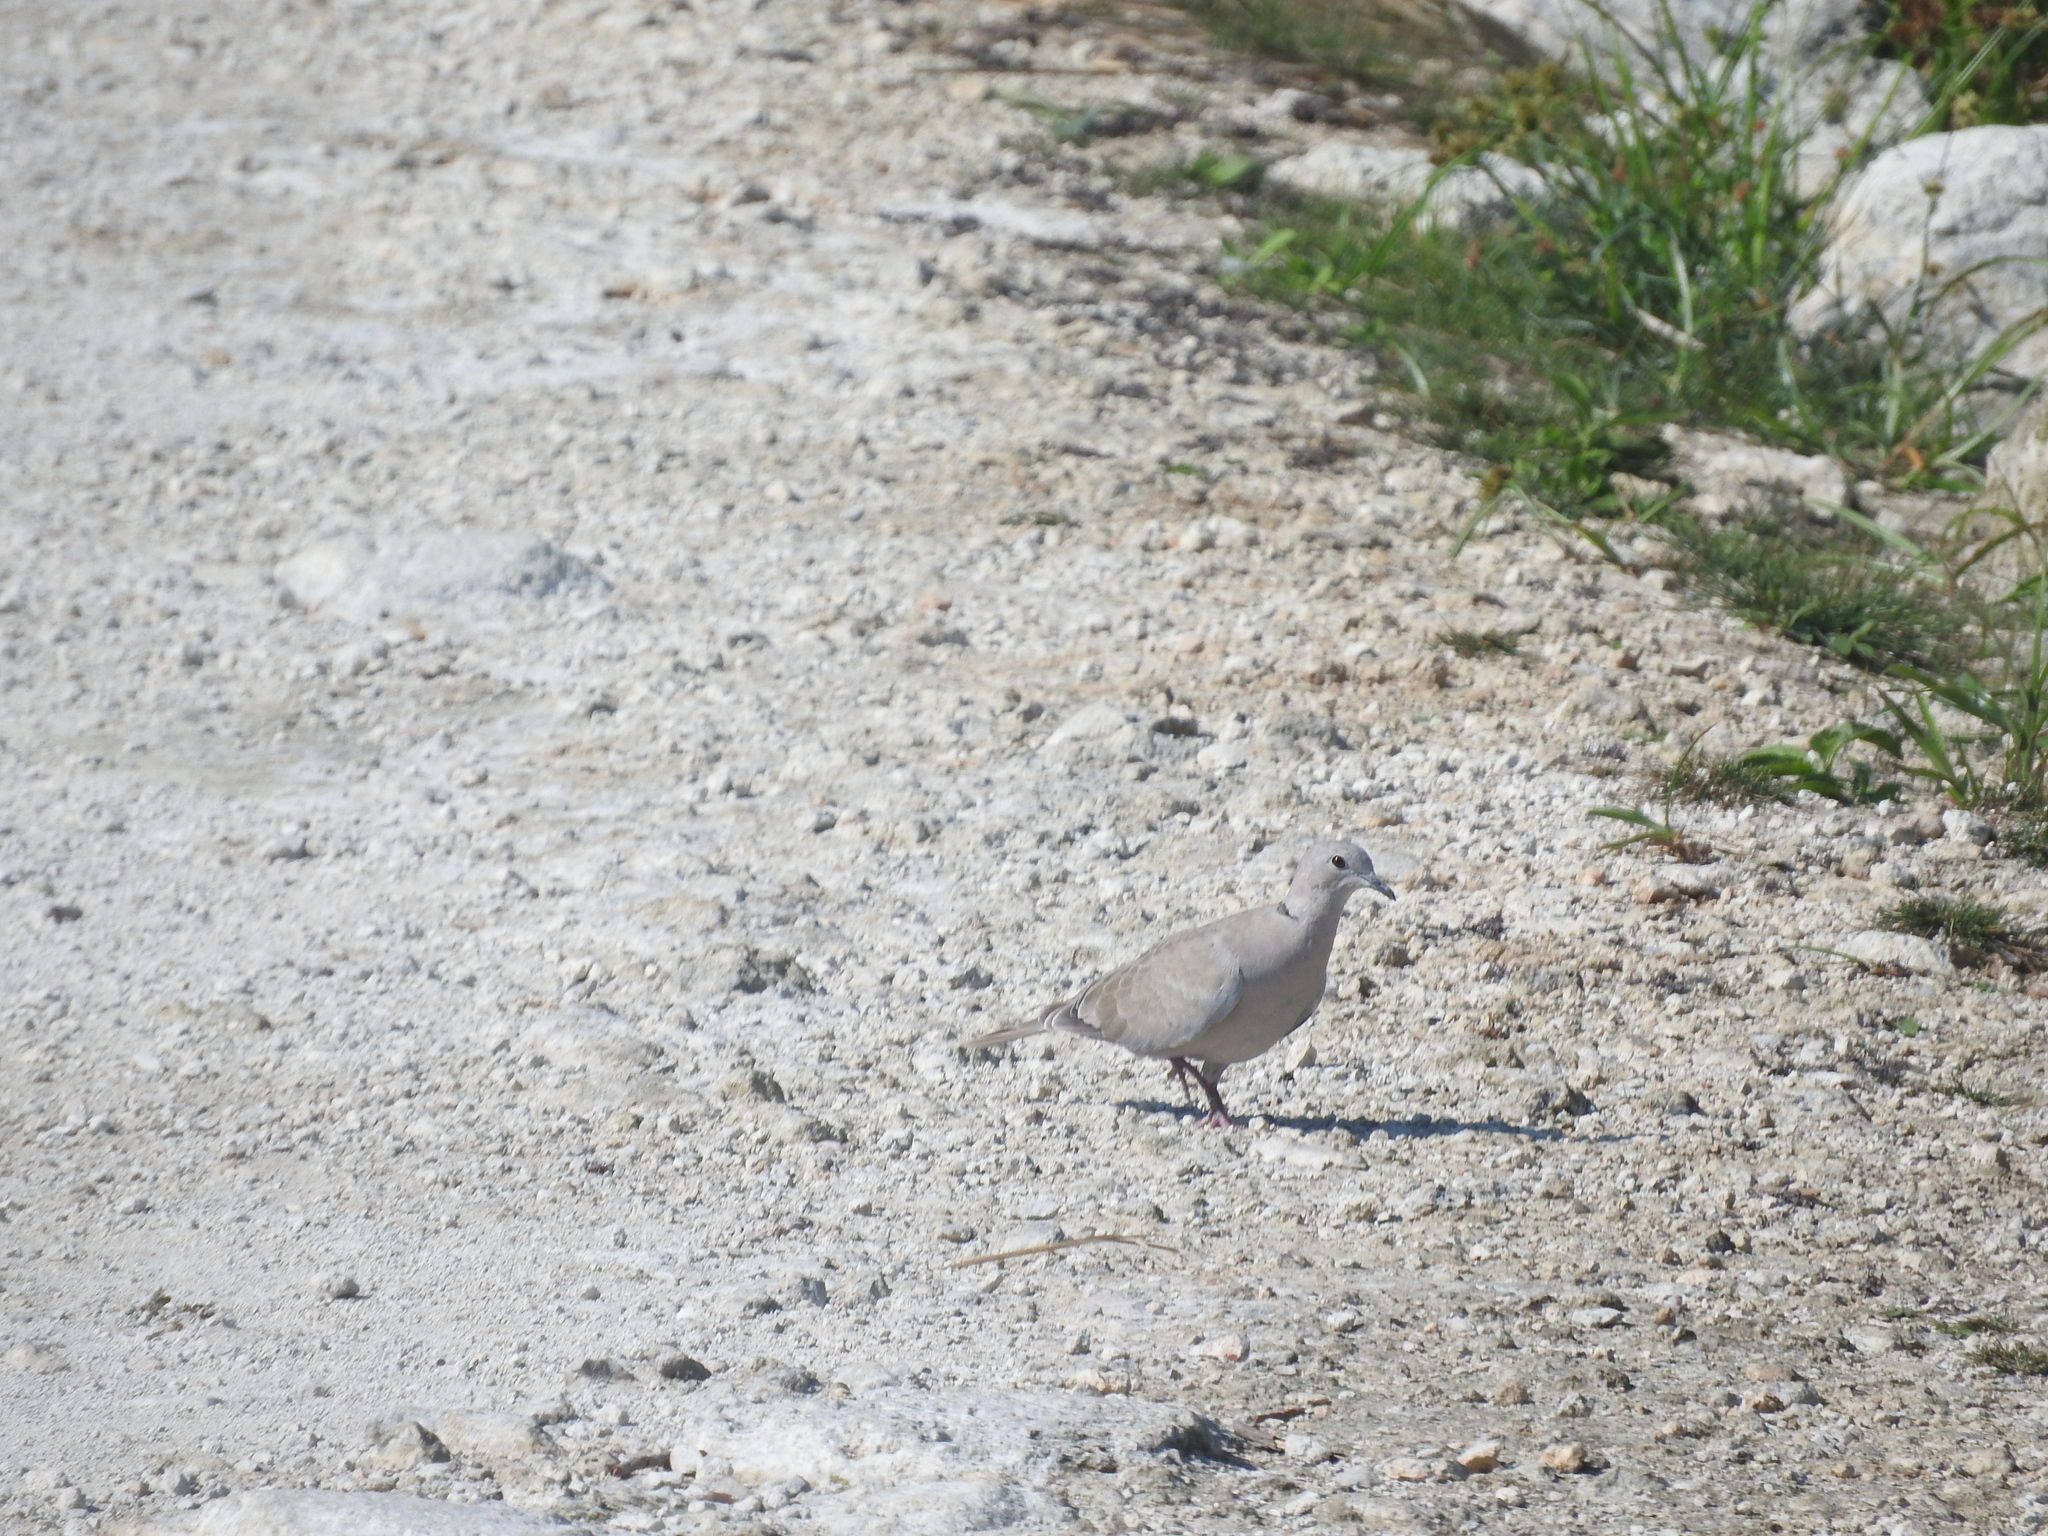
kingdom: Animalia
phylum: Chordata
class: Aves
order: Columbiformes
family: Columbidae
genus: Streptopelia
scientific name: Streptopelia decaocto
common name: Eurasian collared dove
